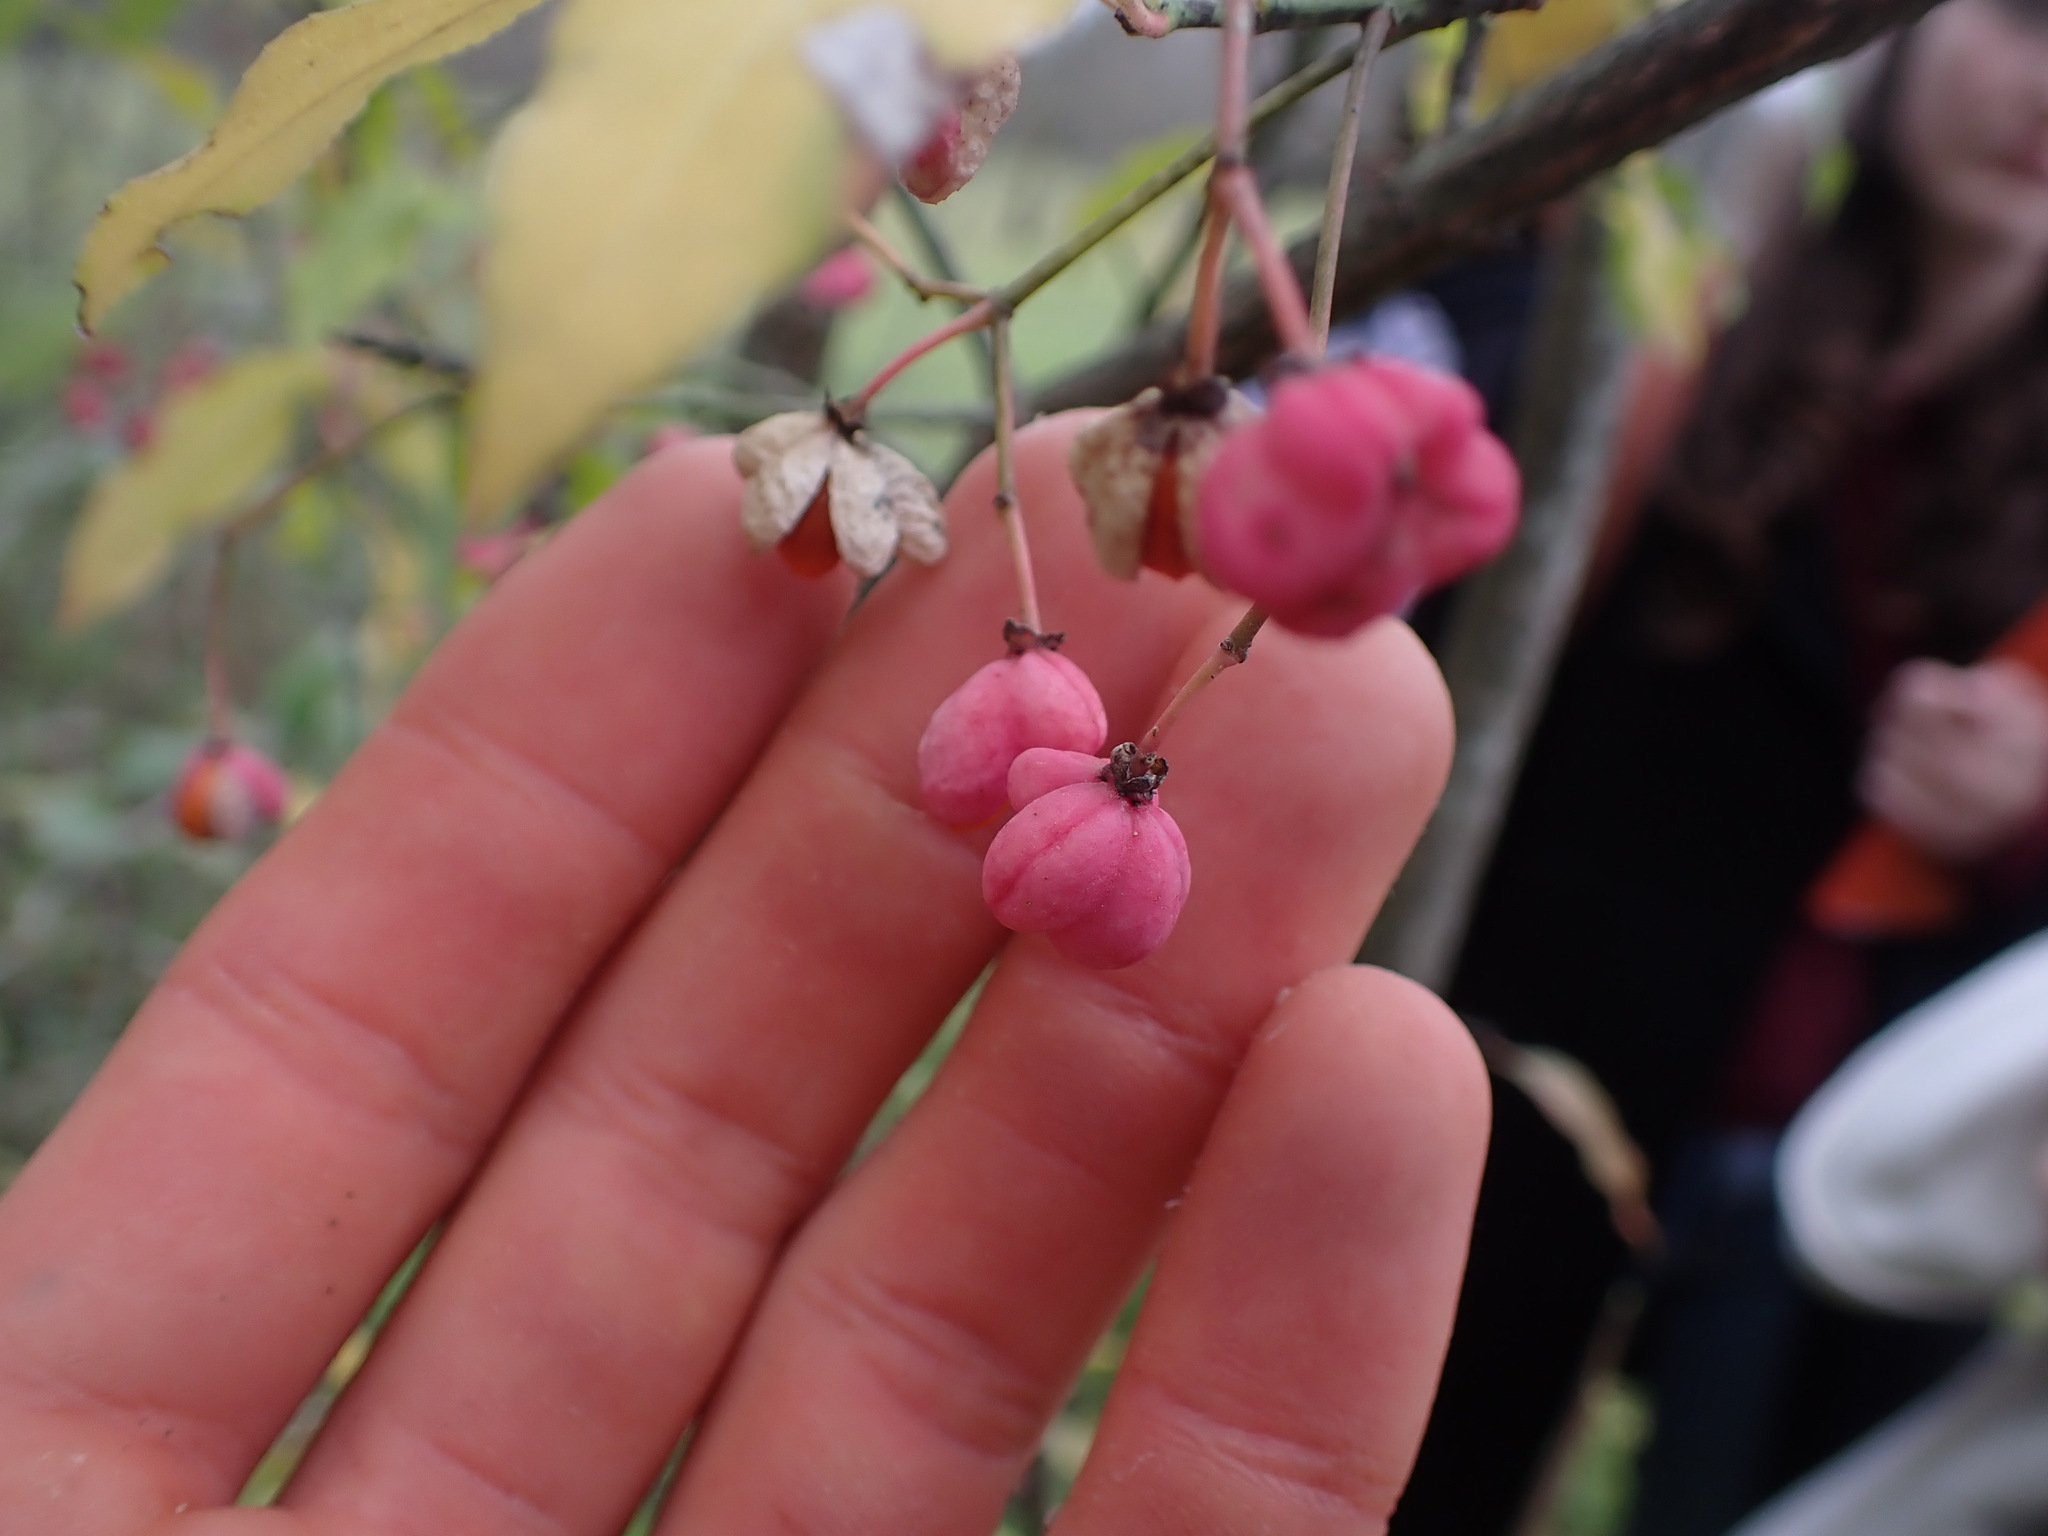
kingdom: Plantae
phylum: Tracheophyta
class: Magnoliopsida
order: Celastrales
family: Celastraceae
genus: Euonymus
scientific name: Euonymus europaeus
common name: Spindle
